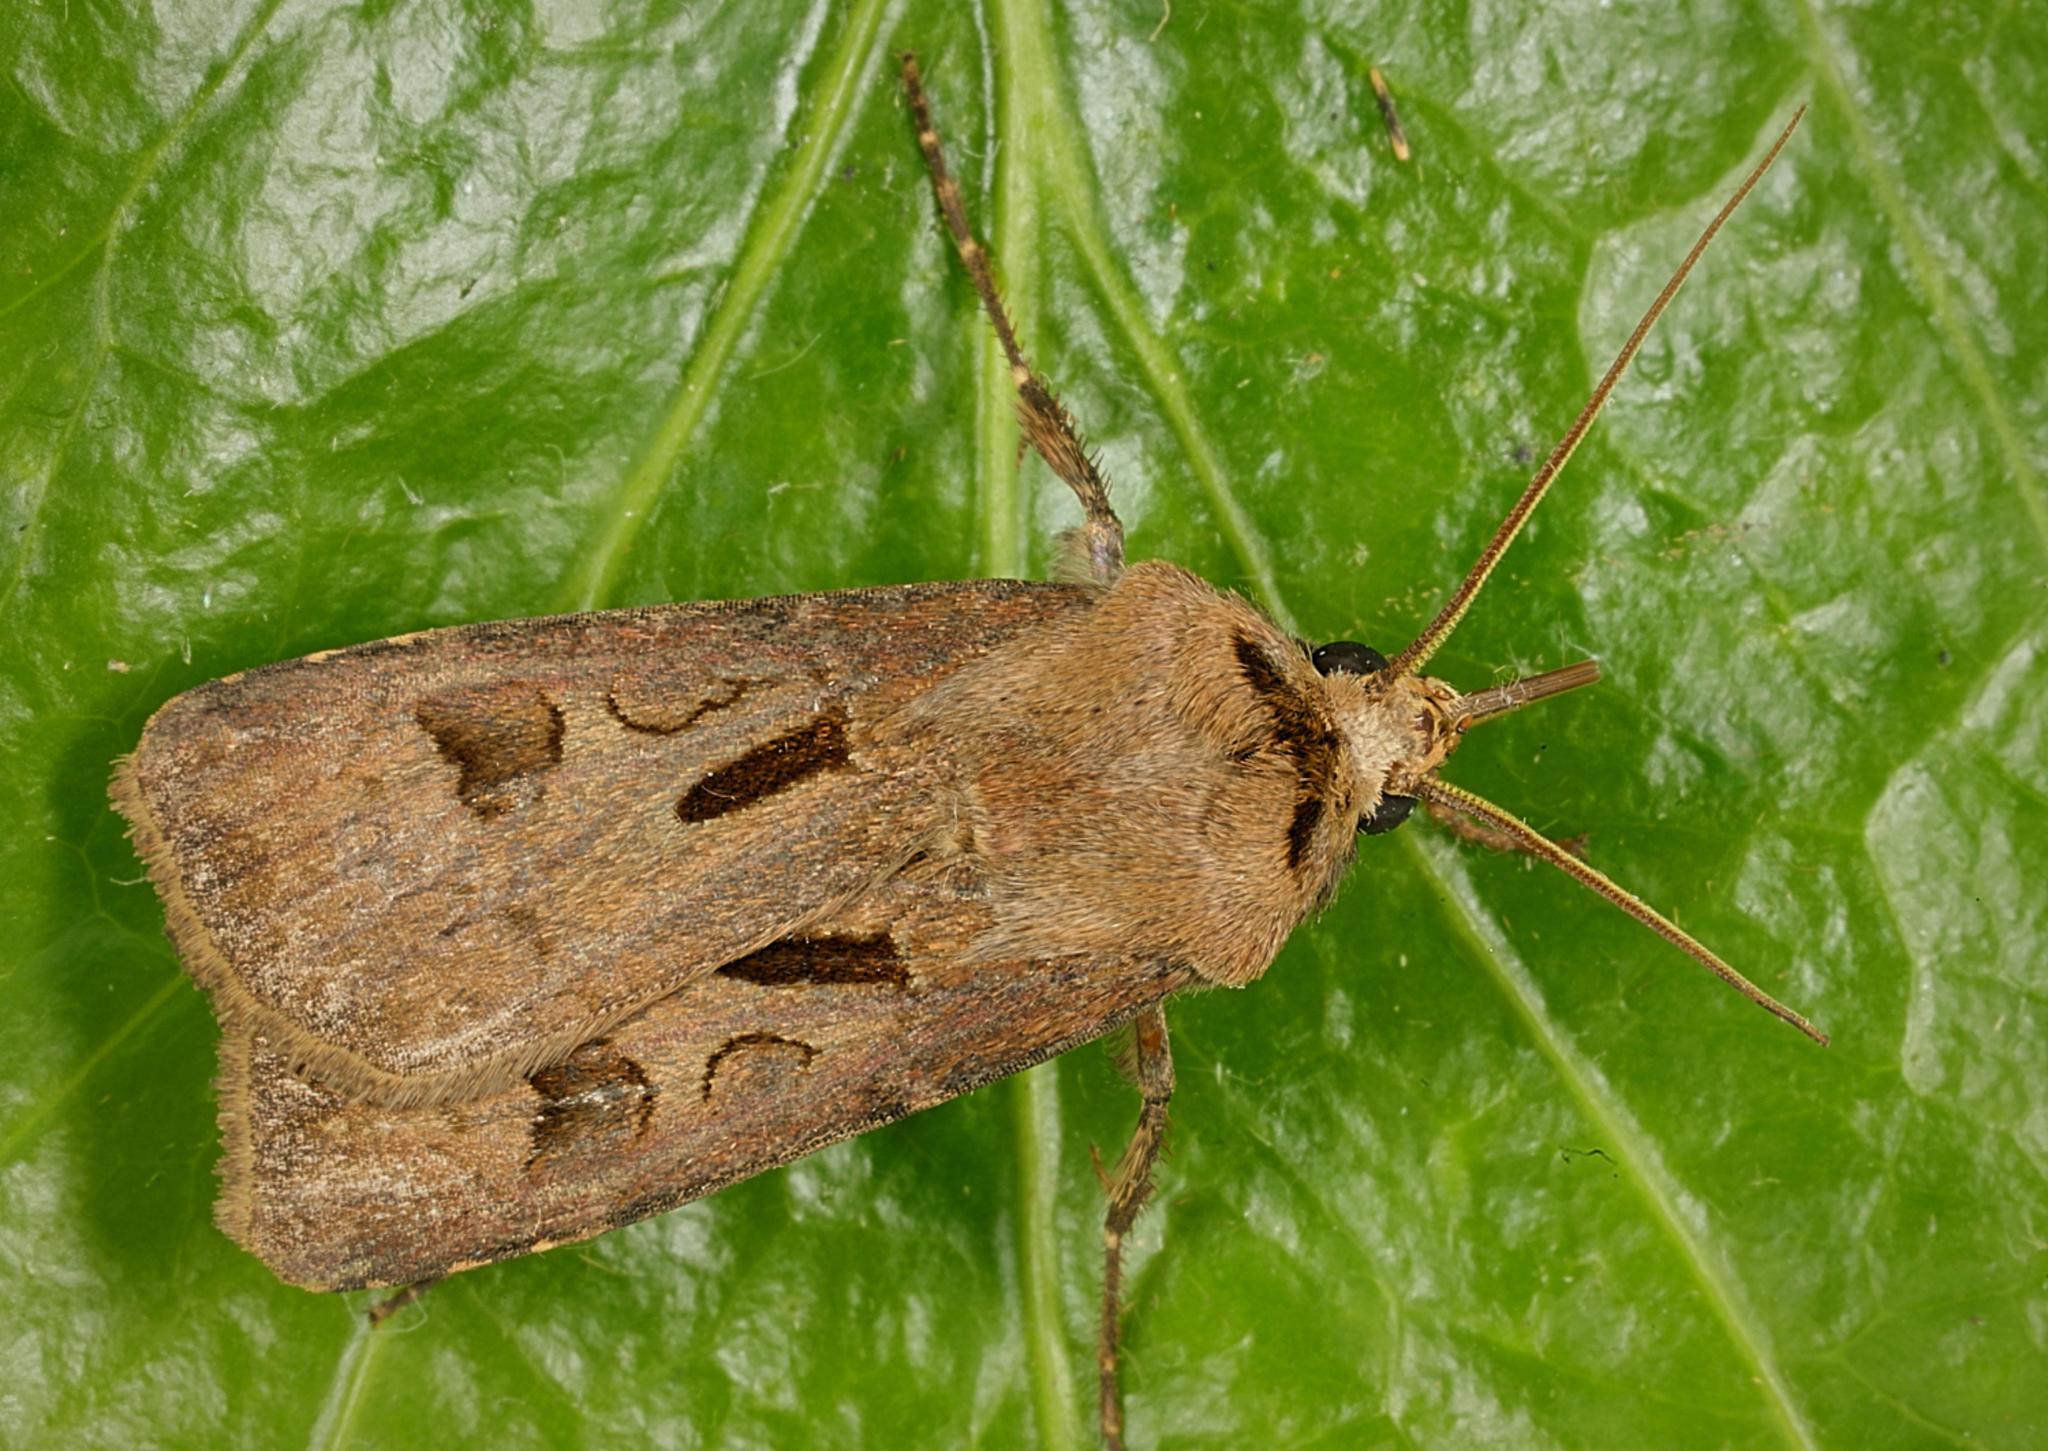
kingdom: Animalia
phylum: Arthropoda
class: Insecta
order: Lepidoptera
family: Noctuidae
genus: Agrotis
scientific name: Agrotis exclamationis
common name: Heart and dart
